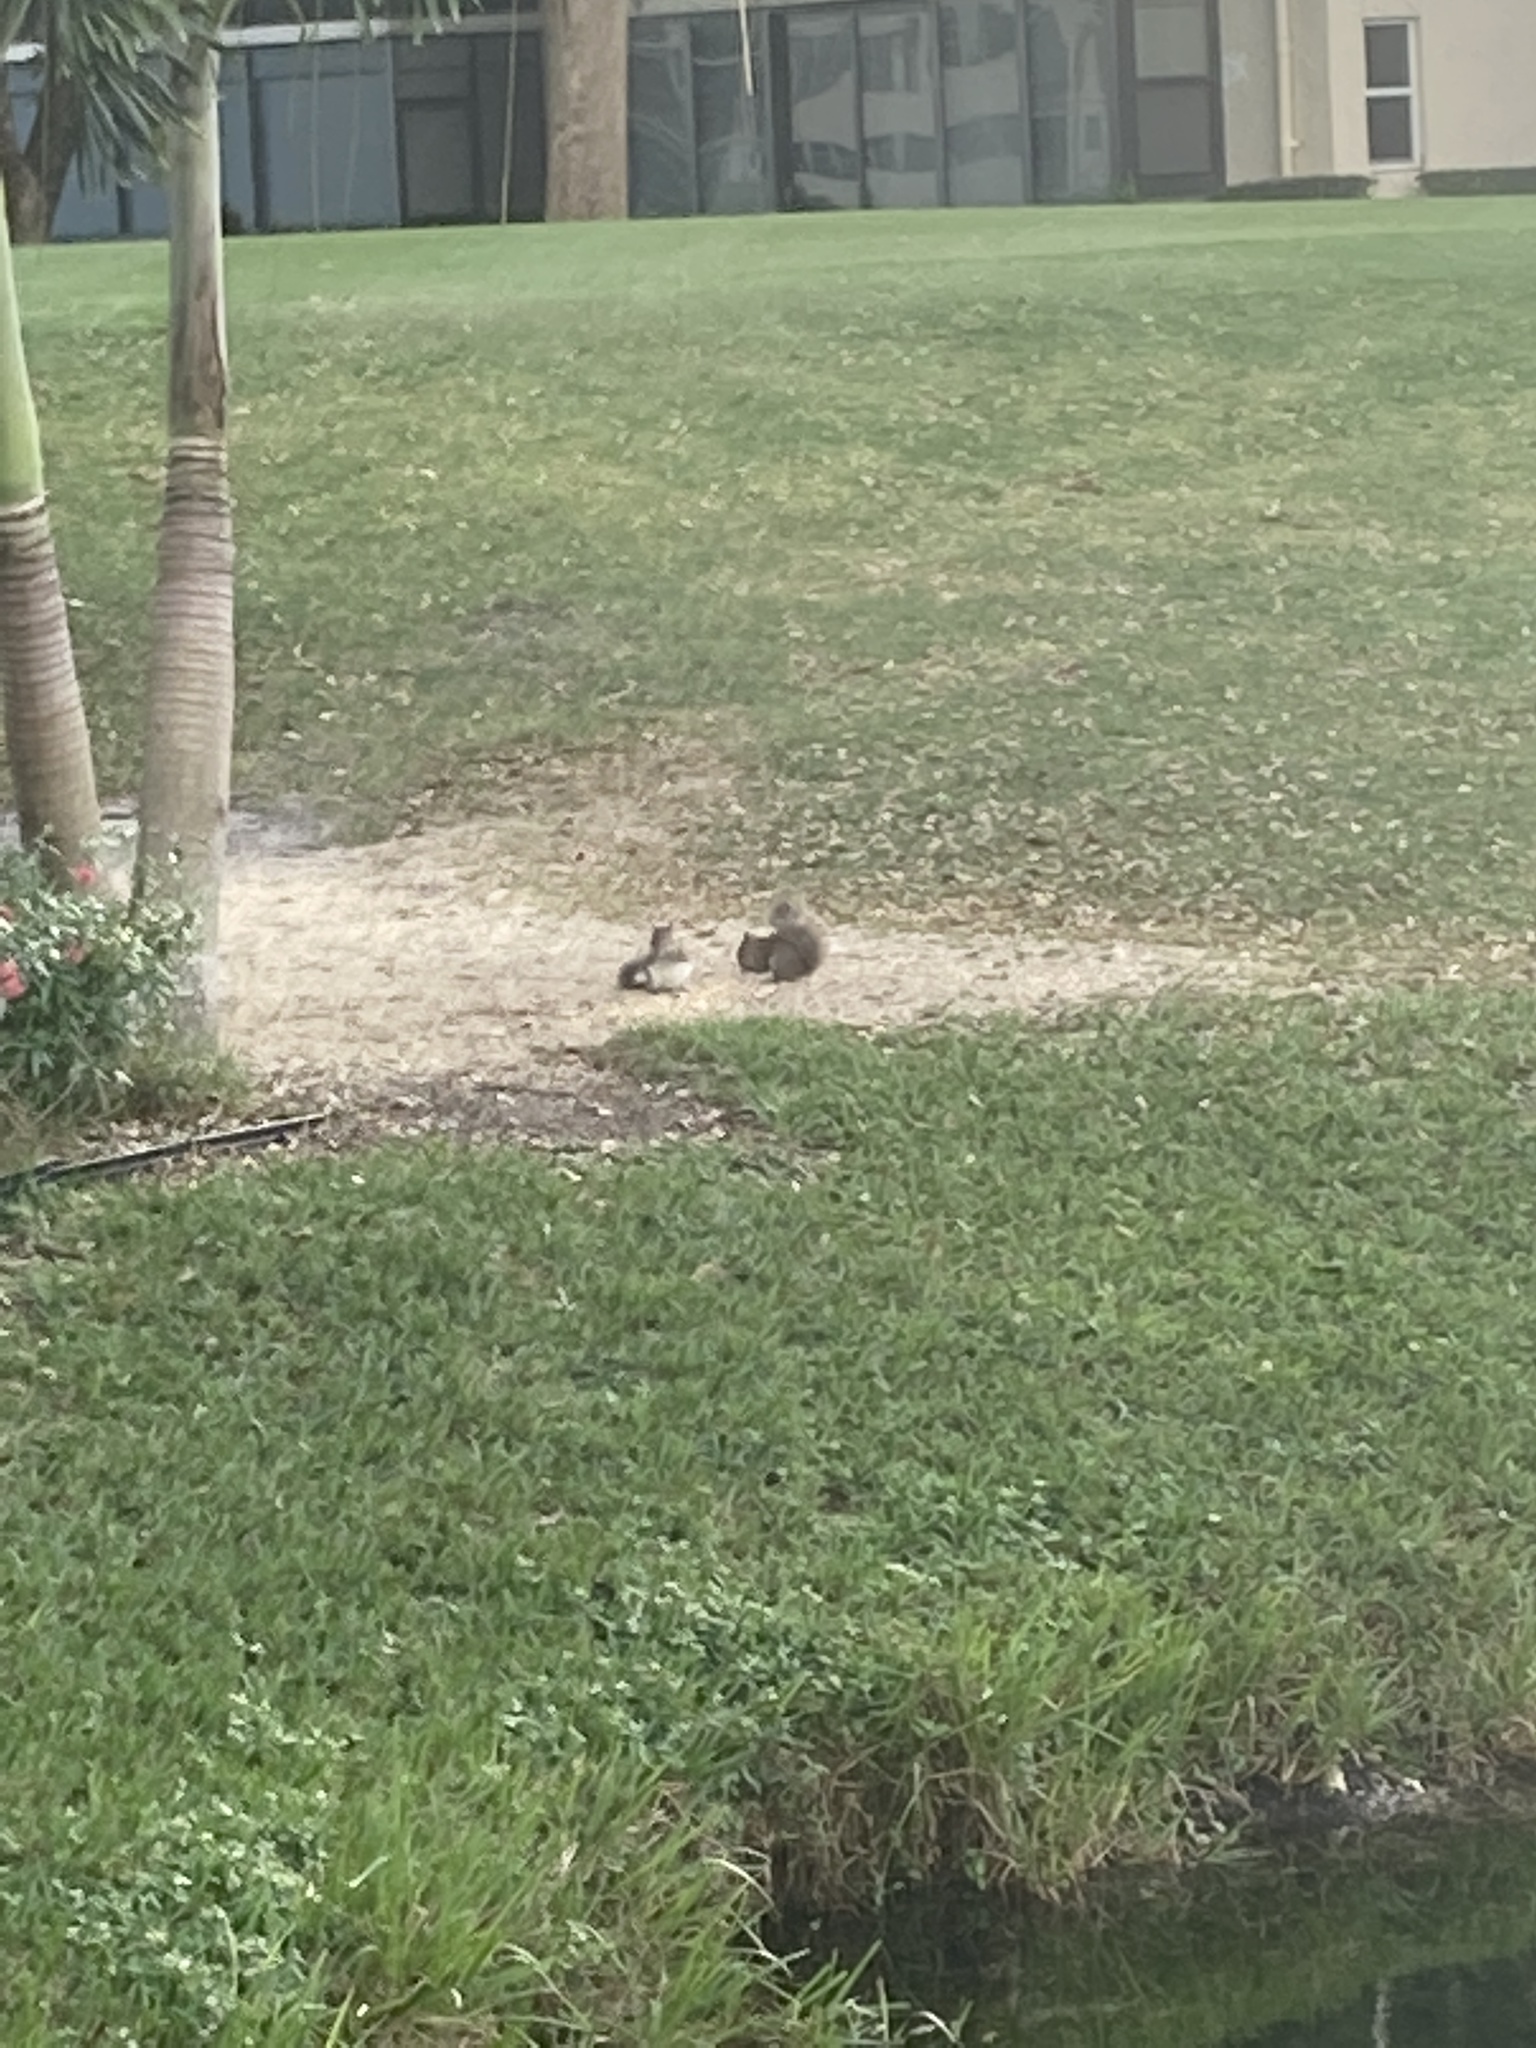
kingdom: Animalia
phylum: Chordata
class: Mammalia
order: Rodentia
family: Sciuridae
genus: Sciurus
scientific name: Sciurus carolinensis
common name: Eastern gray squirrel
